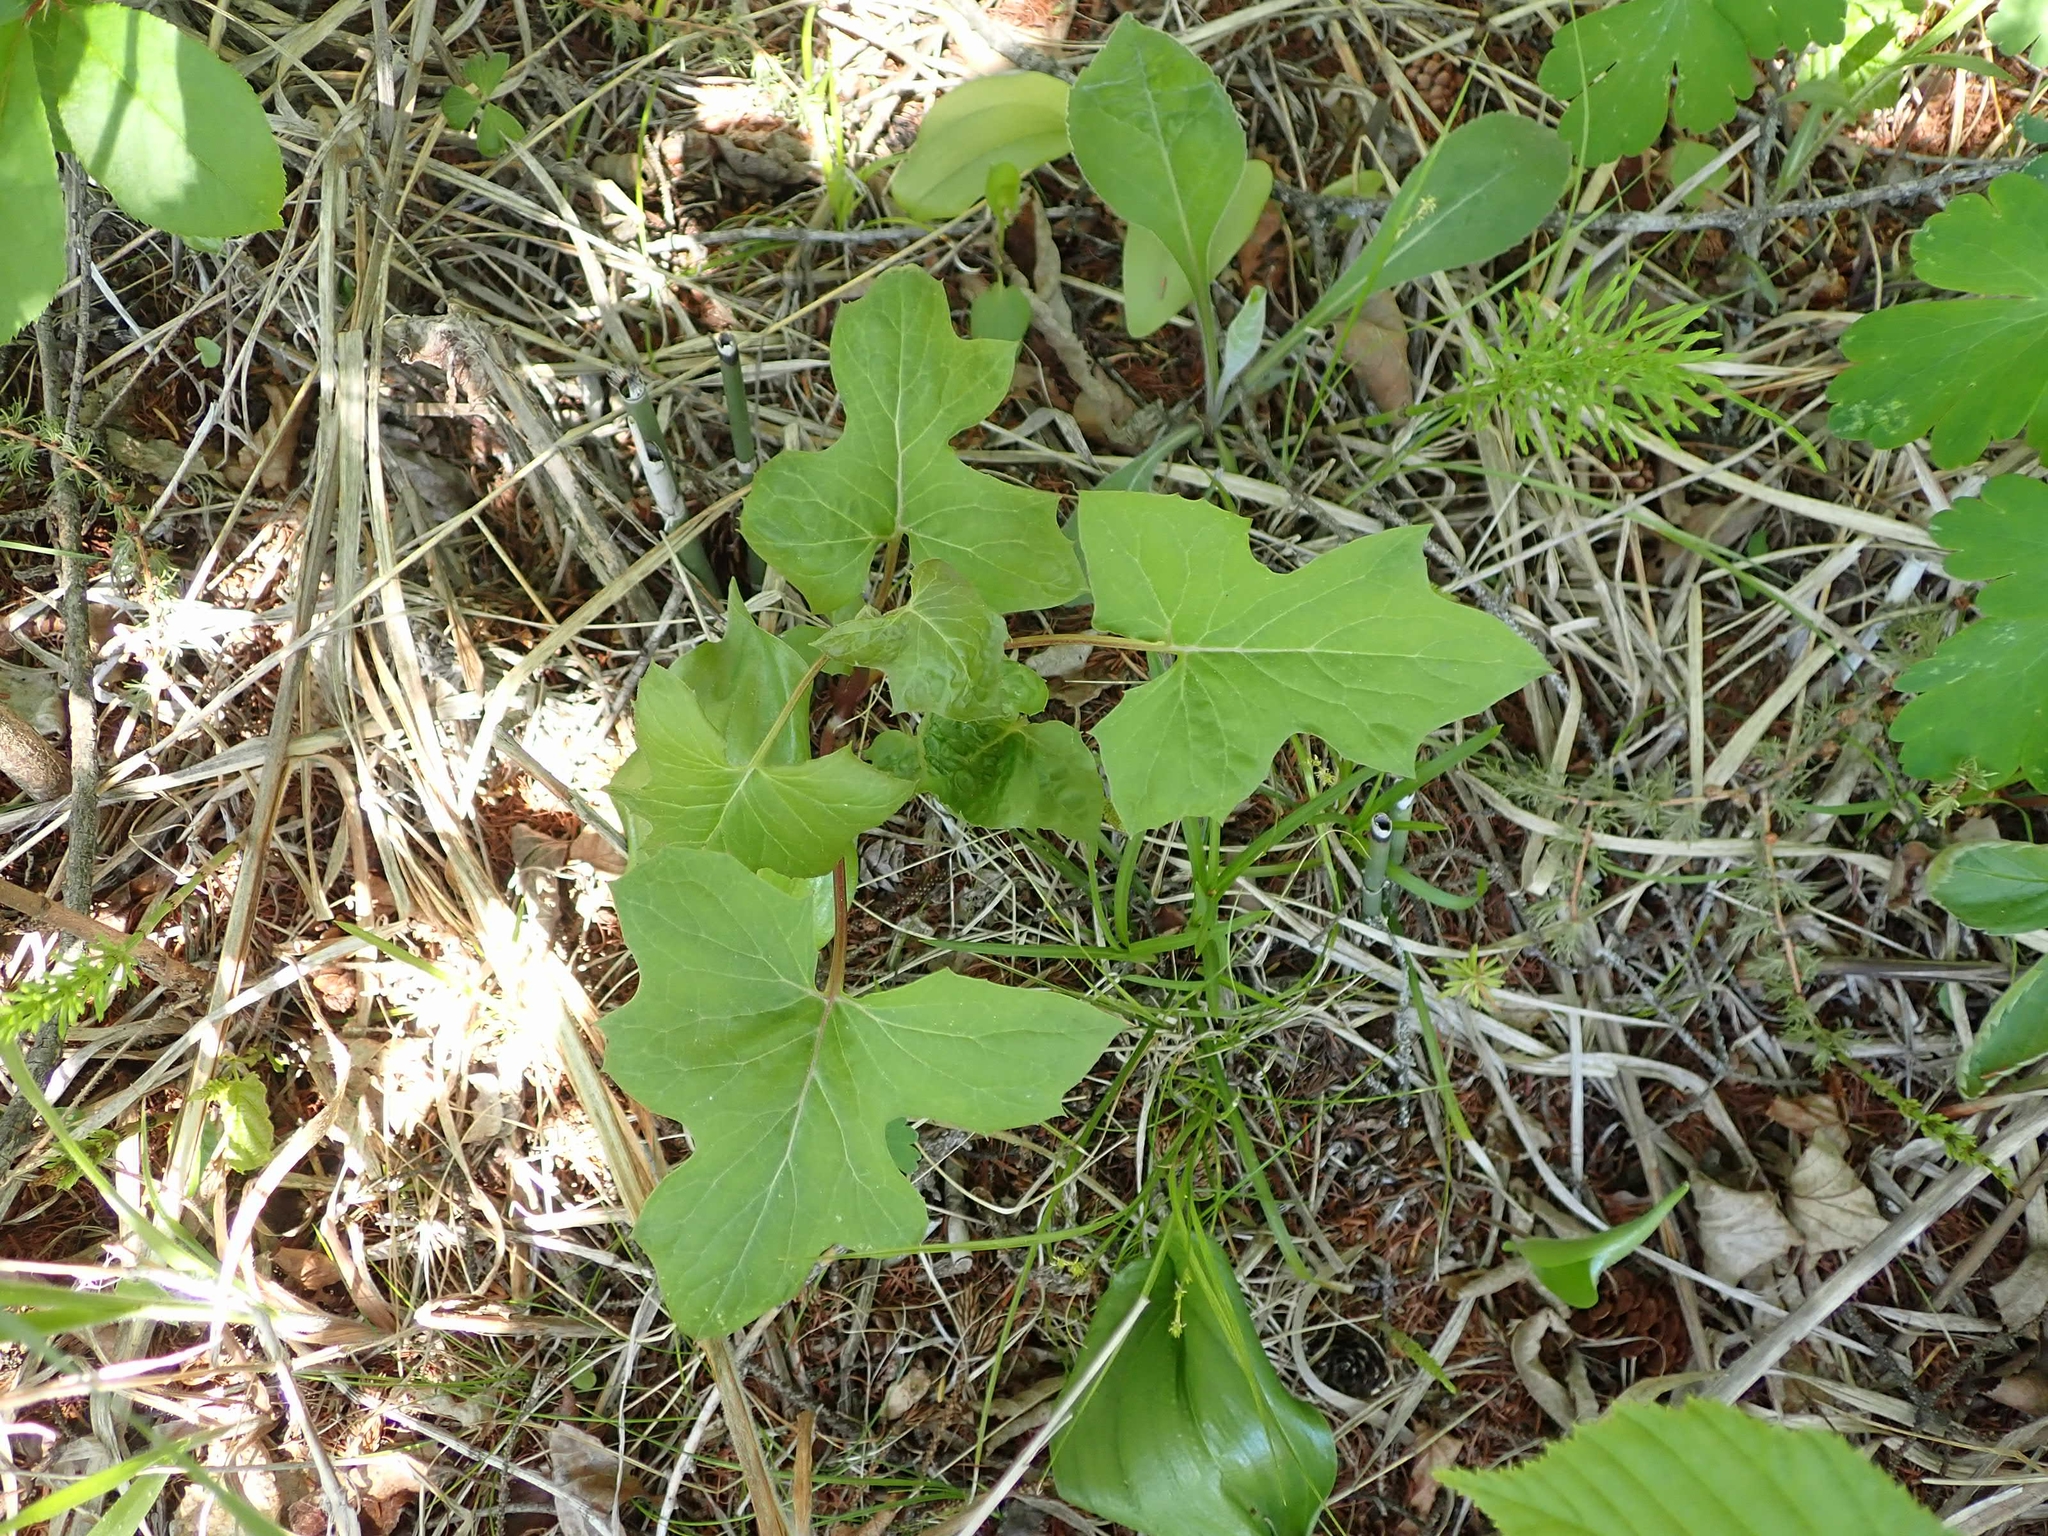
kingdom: Plantae
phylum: Tracheophyta
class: Magnoliopsida
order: Asterales
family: Asteraceae
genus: Nabalus
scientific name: Nabalus albus
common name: White rattlesnakeroot
